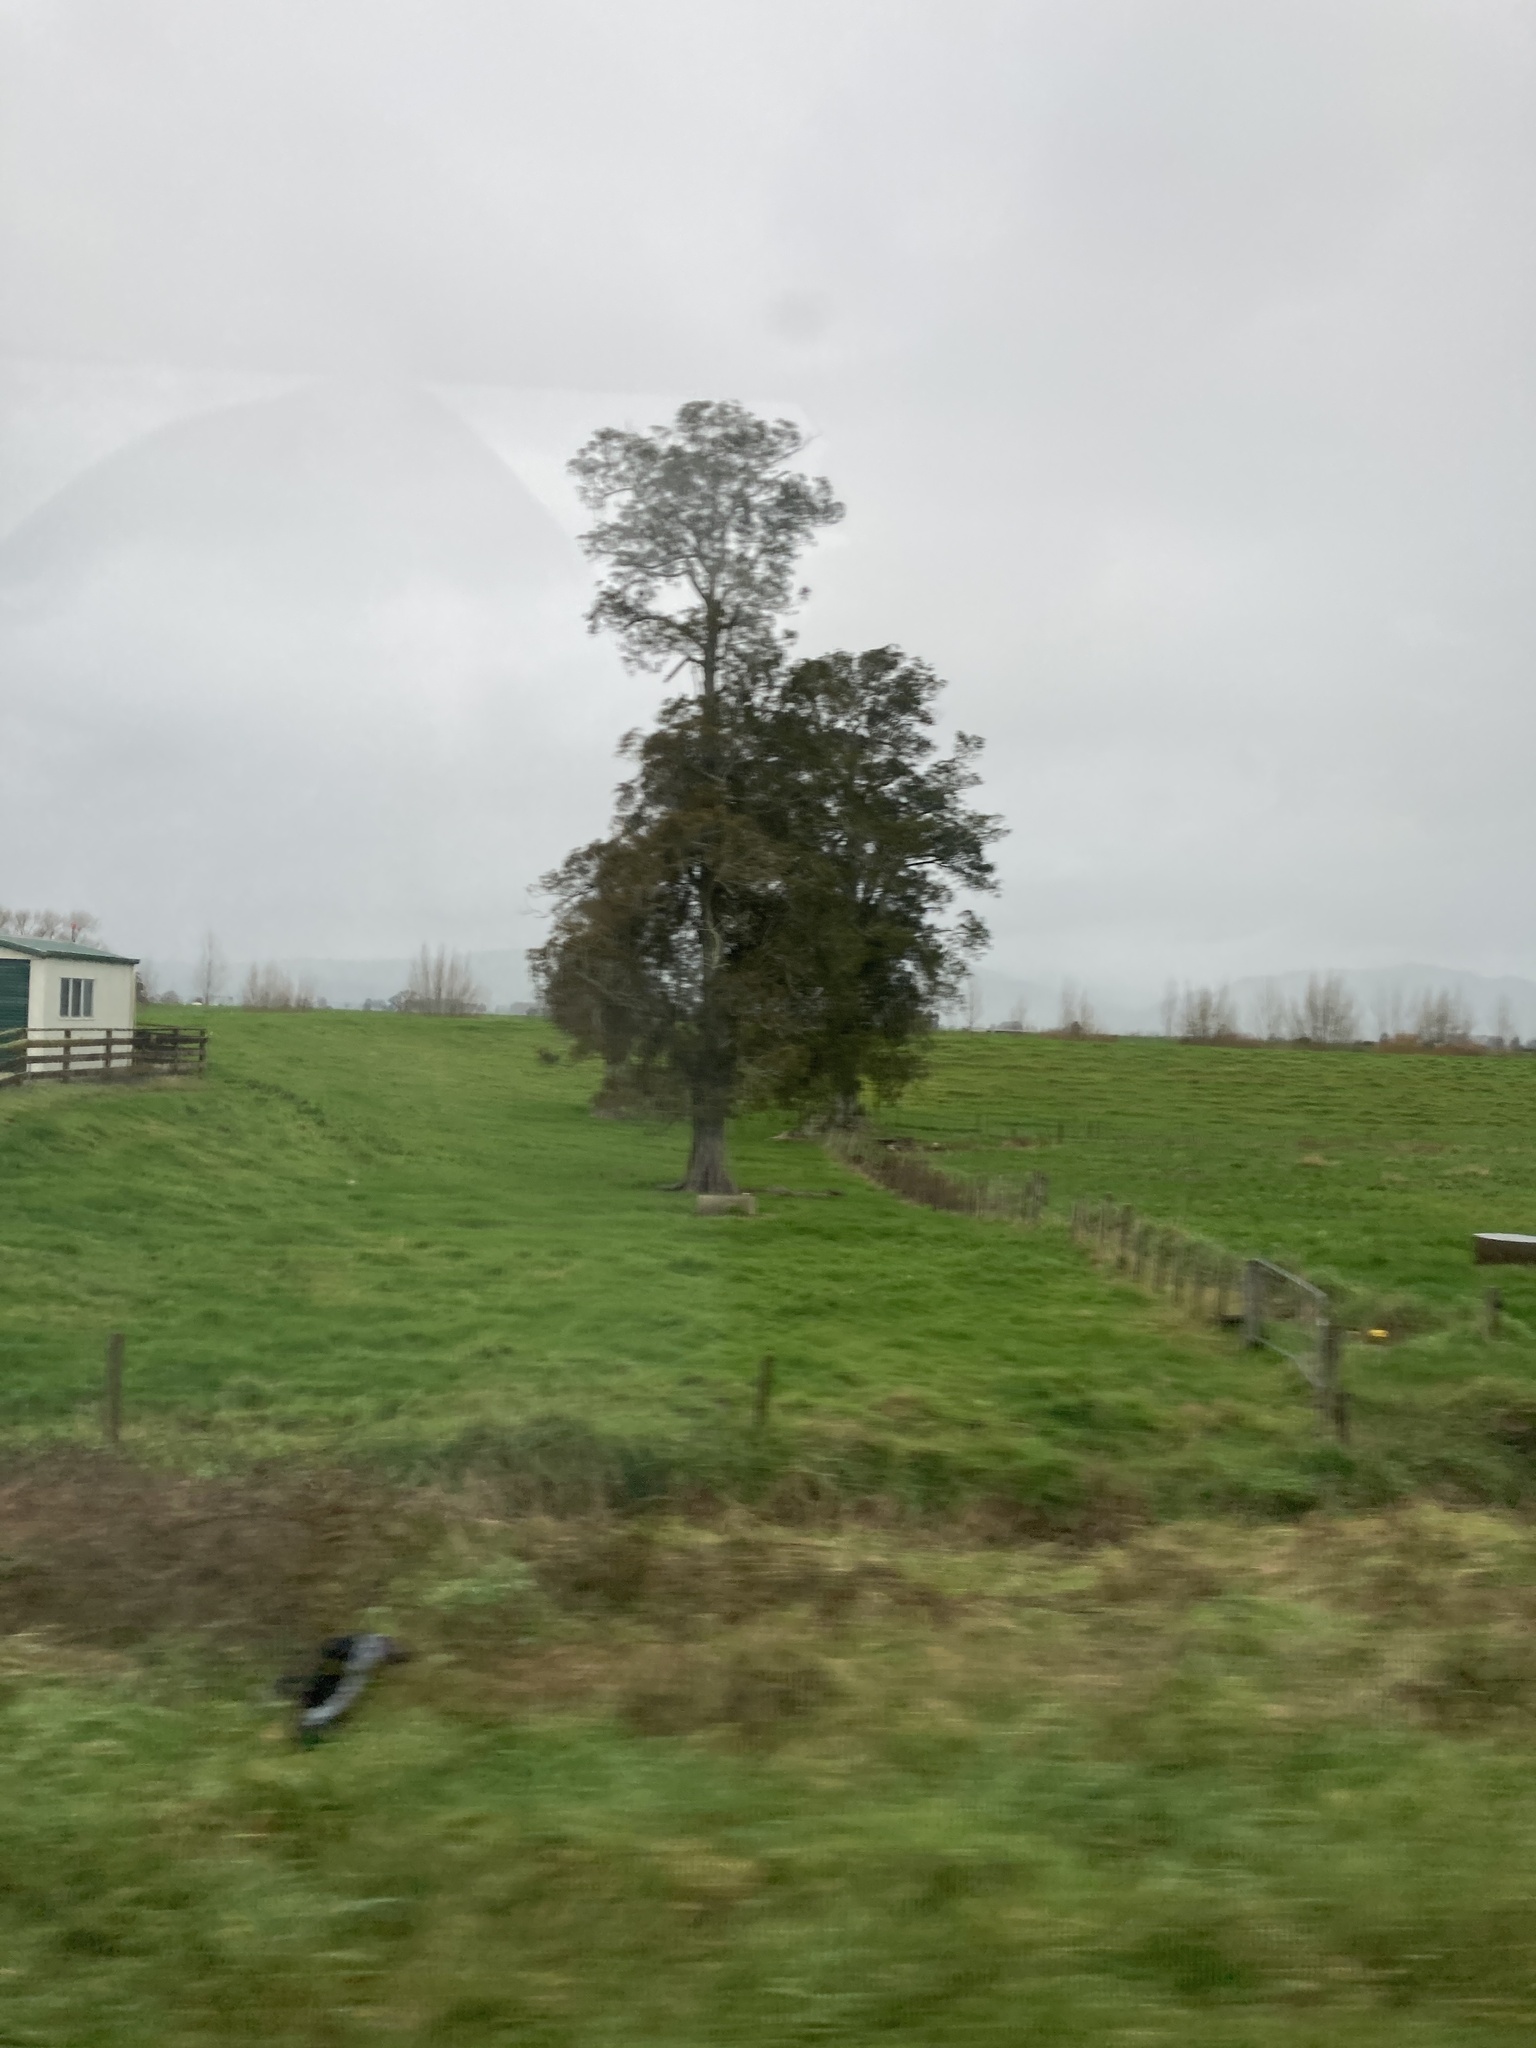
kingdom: Plantae
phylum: Tracheophyta
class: Pinopsida
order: Pinales
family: Podocarpaceae
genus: Dacrycarpus
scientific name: Dacrycarpus dacrydioides
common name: White pine
